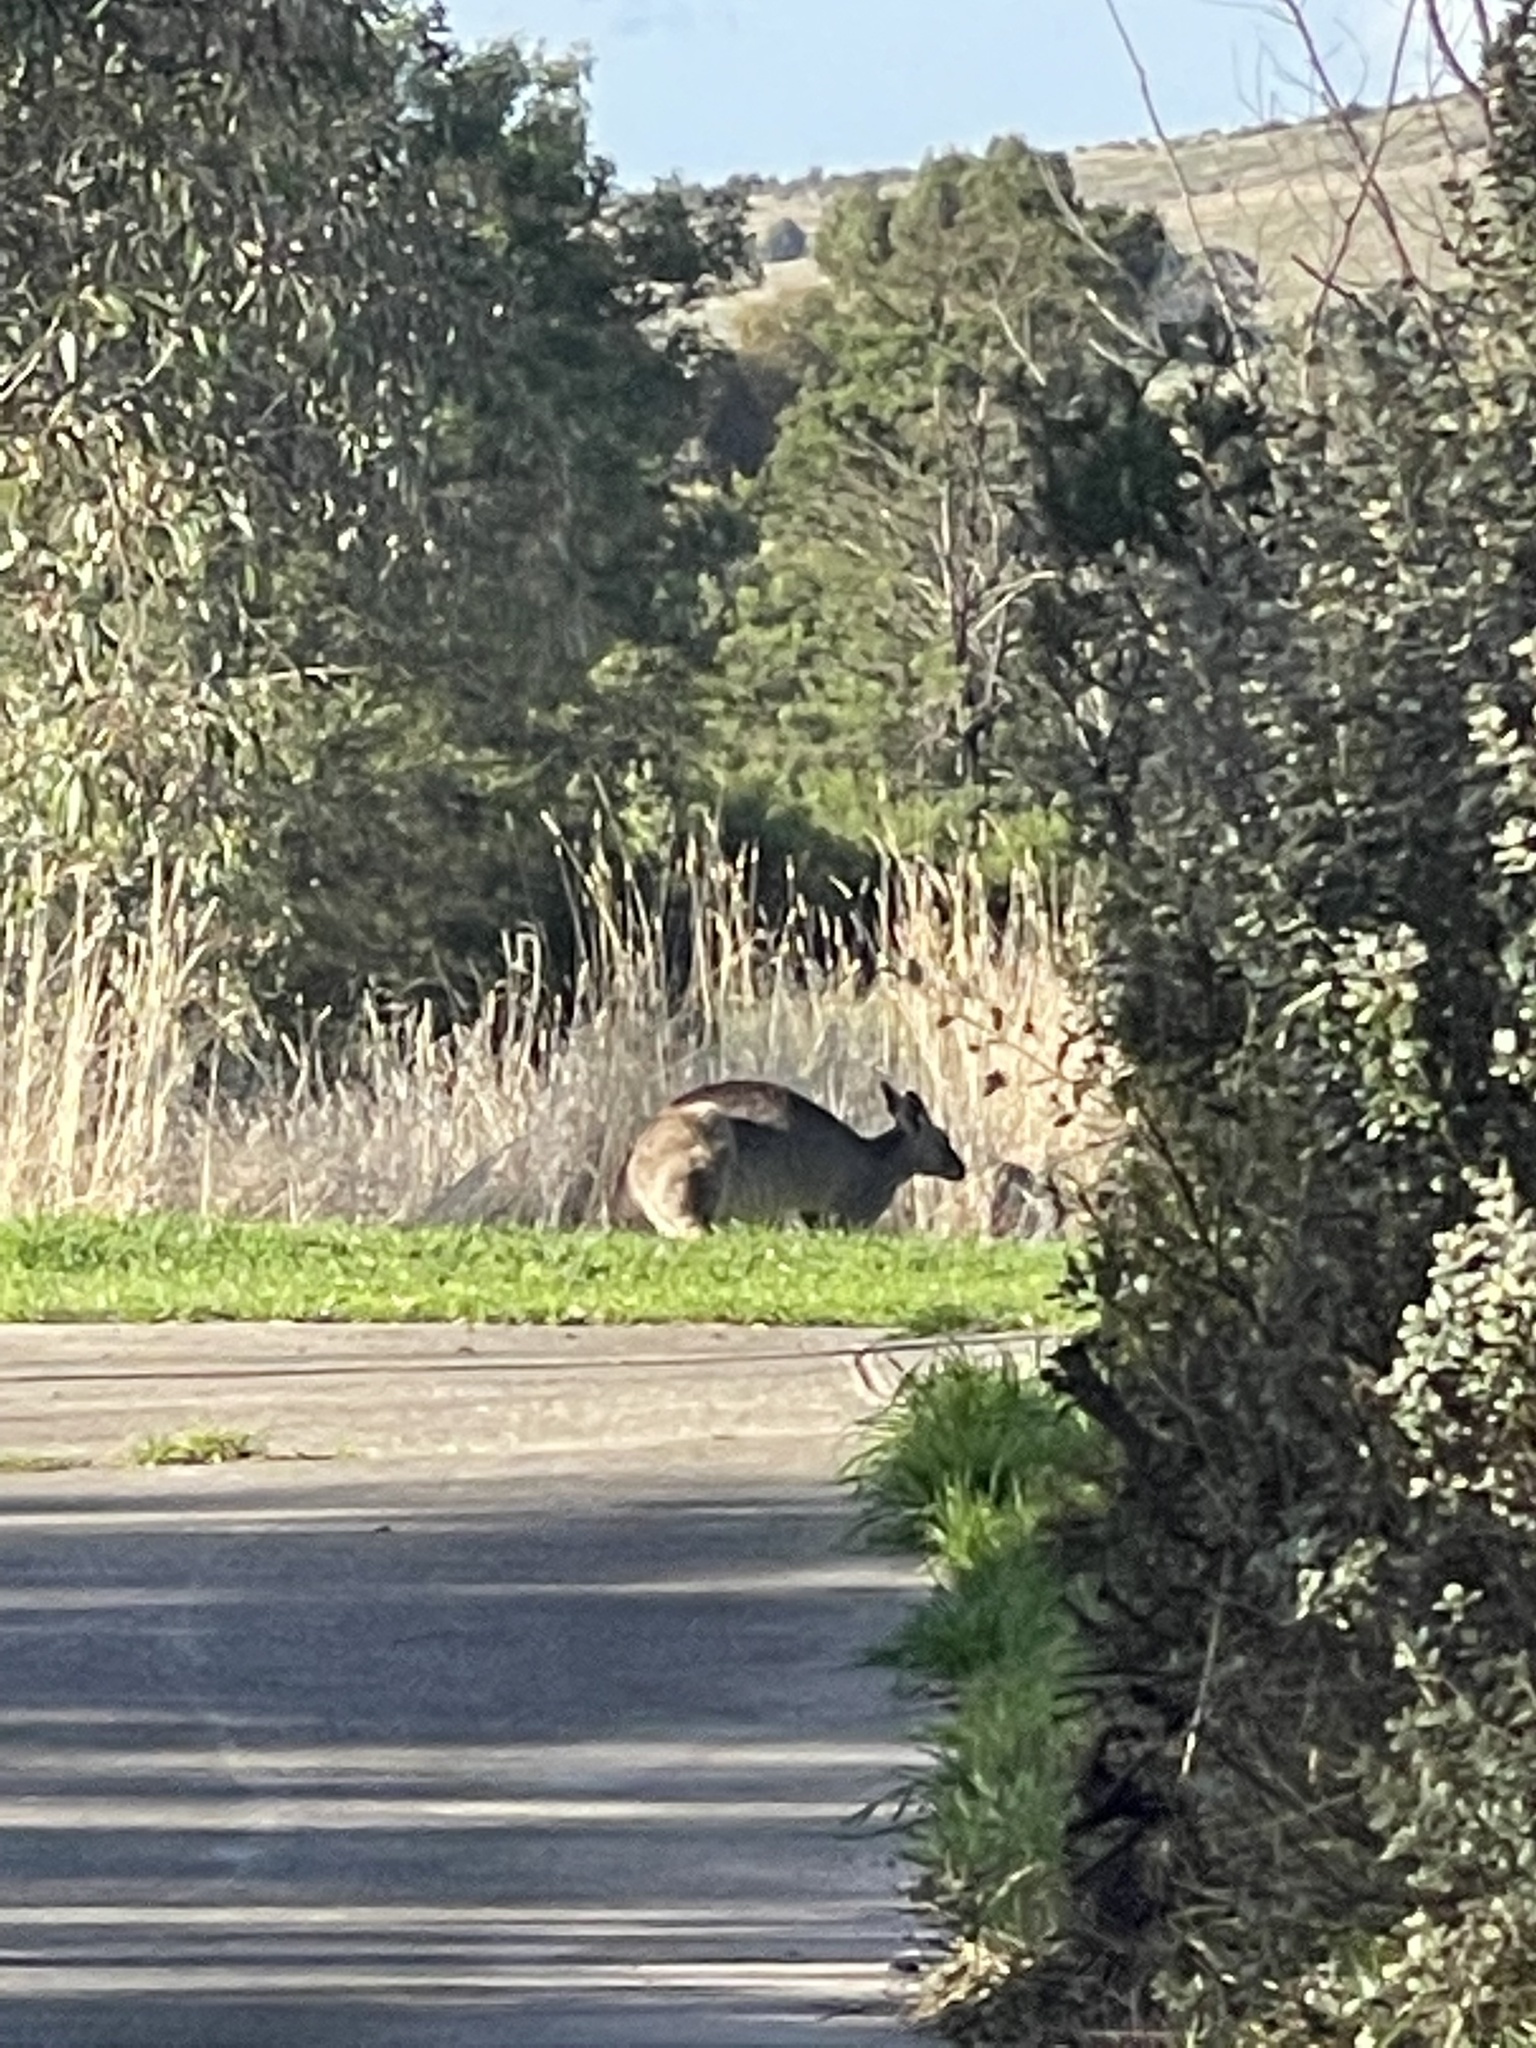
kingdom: Animalia
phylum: Chordata
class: Mammalia
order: Diprotodontia
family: Macropodidae
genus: Macropus
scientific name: Macropus giganteus
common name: Eastern grey kangaroo
